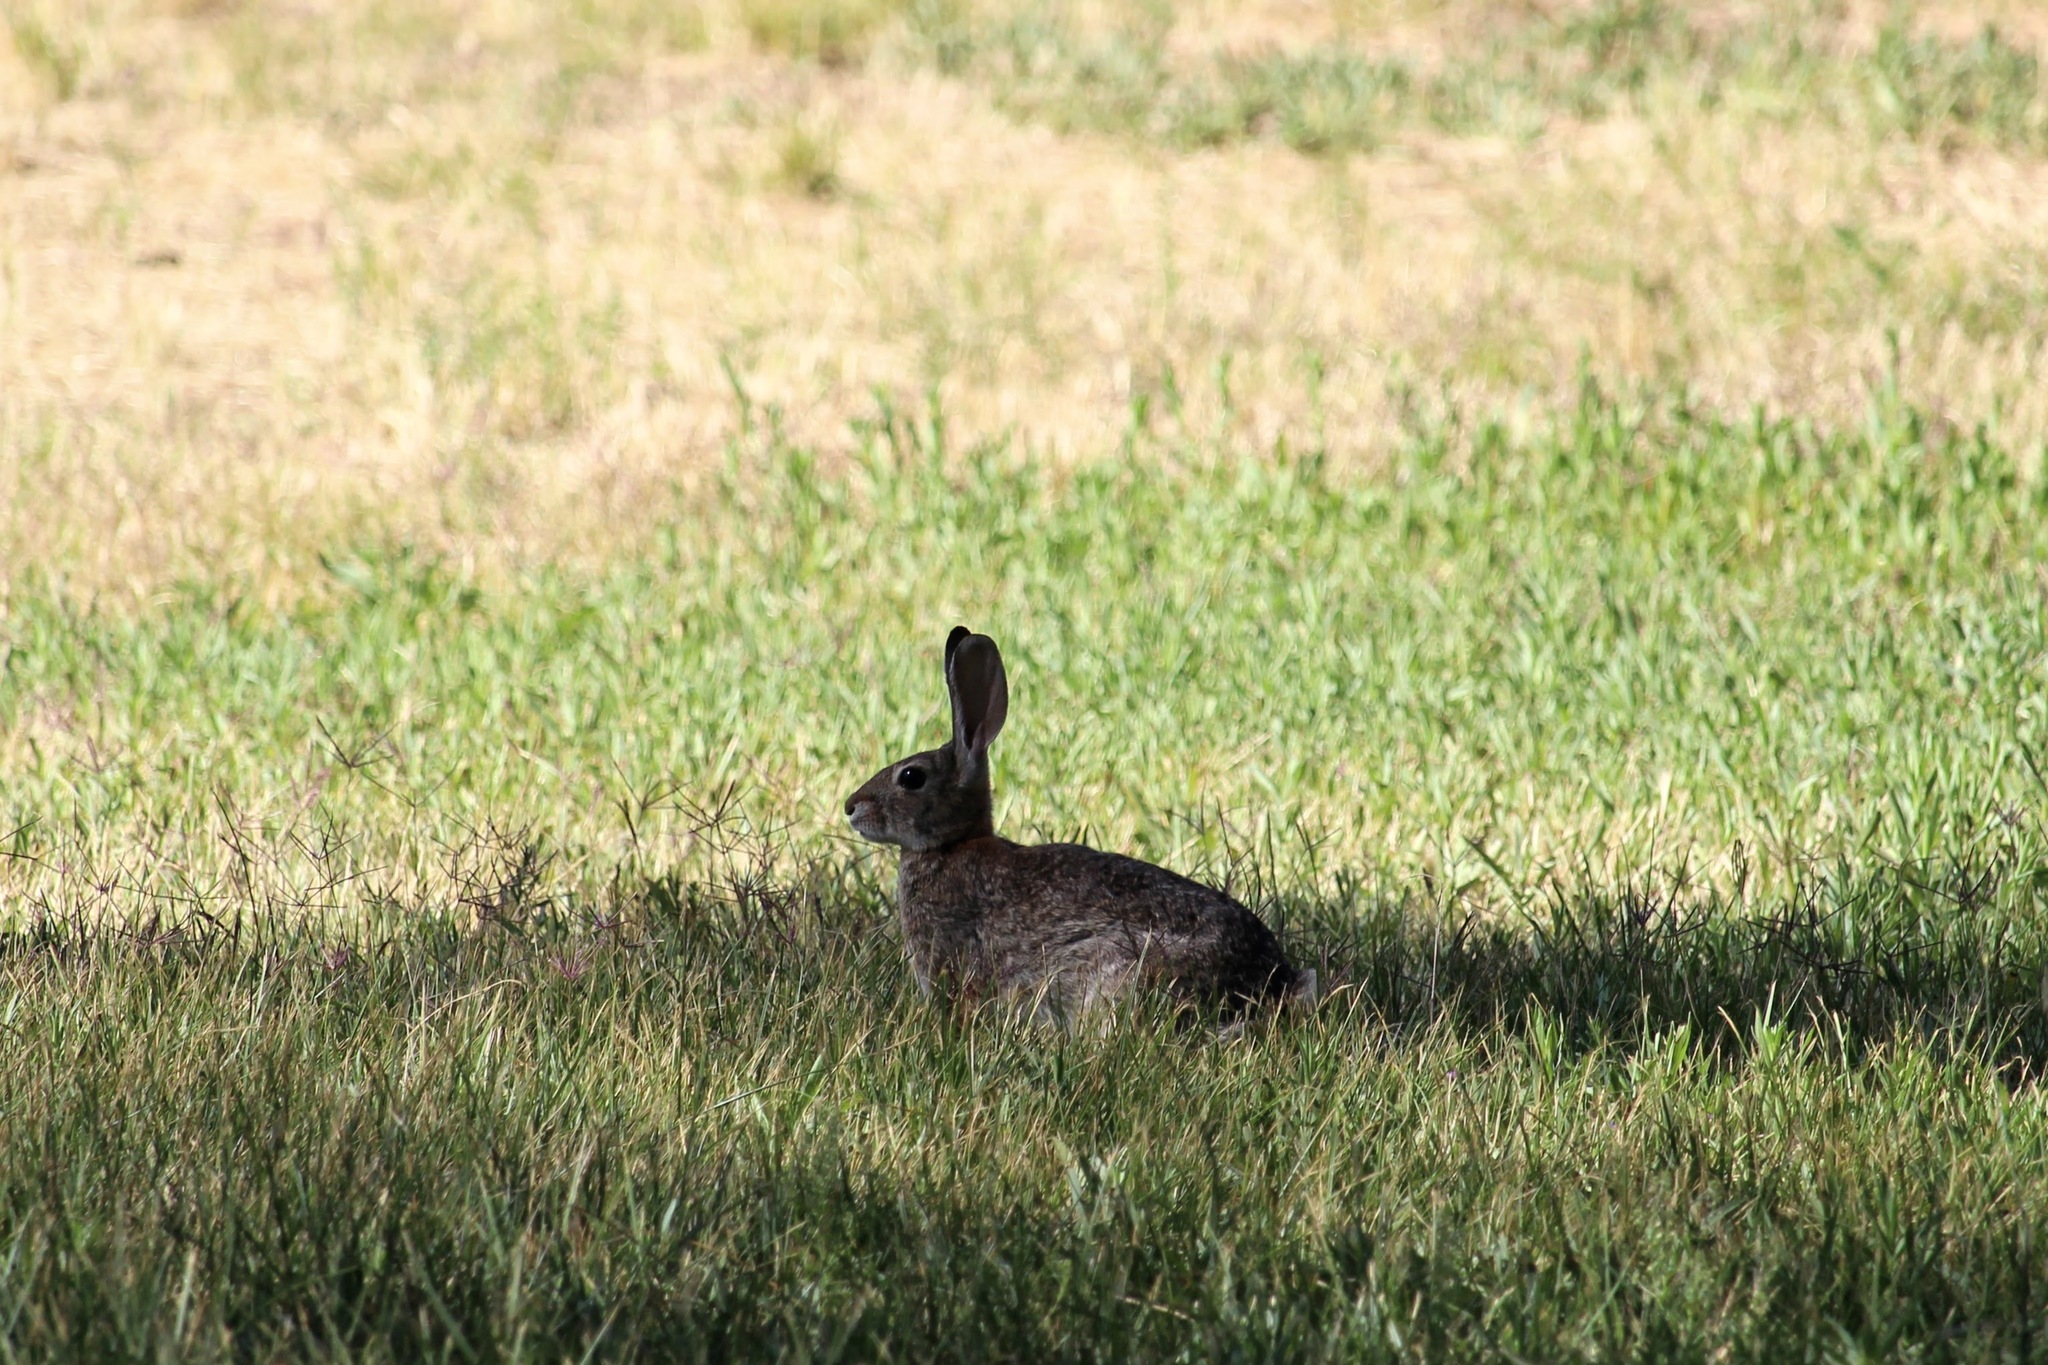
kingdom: Animalia
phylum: Chordata
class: Mammalia
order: Lagomorpha
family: Leporidae
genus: Sylvilagus
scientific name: Sylvilagus audubonii
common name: Desert cottontail
